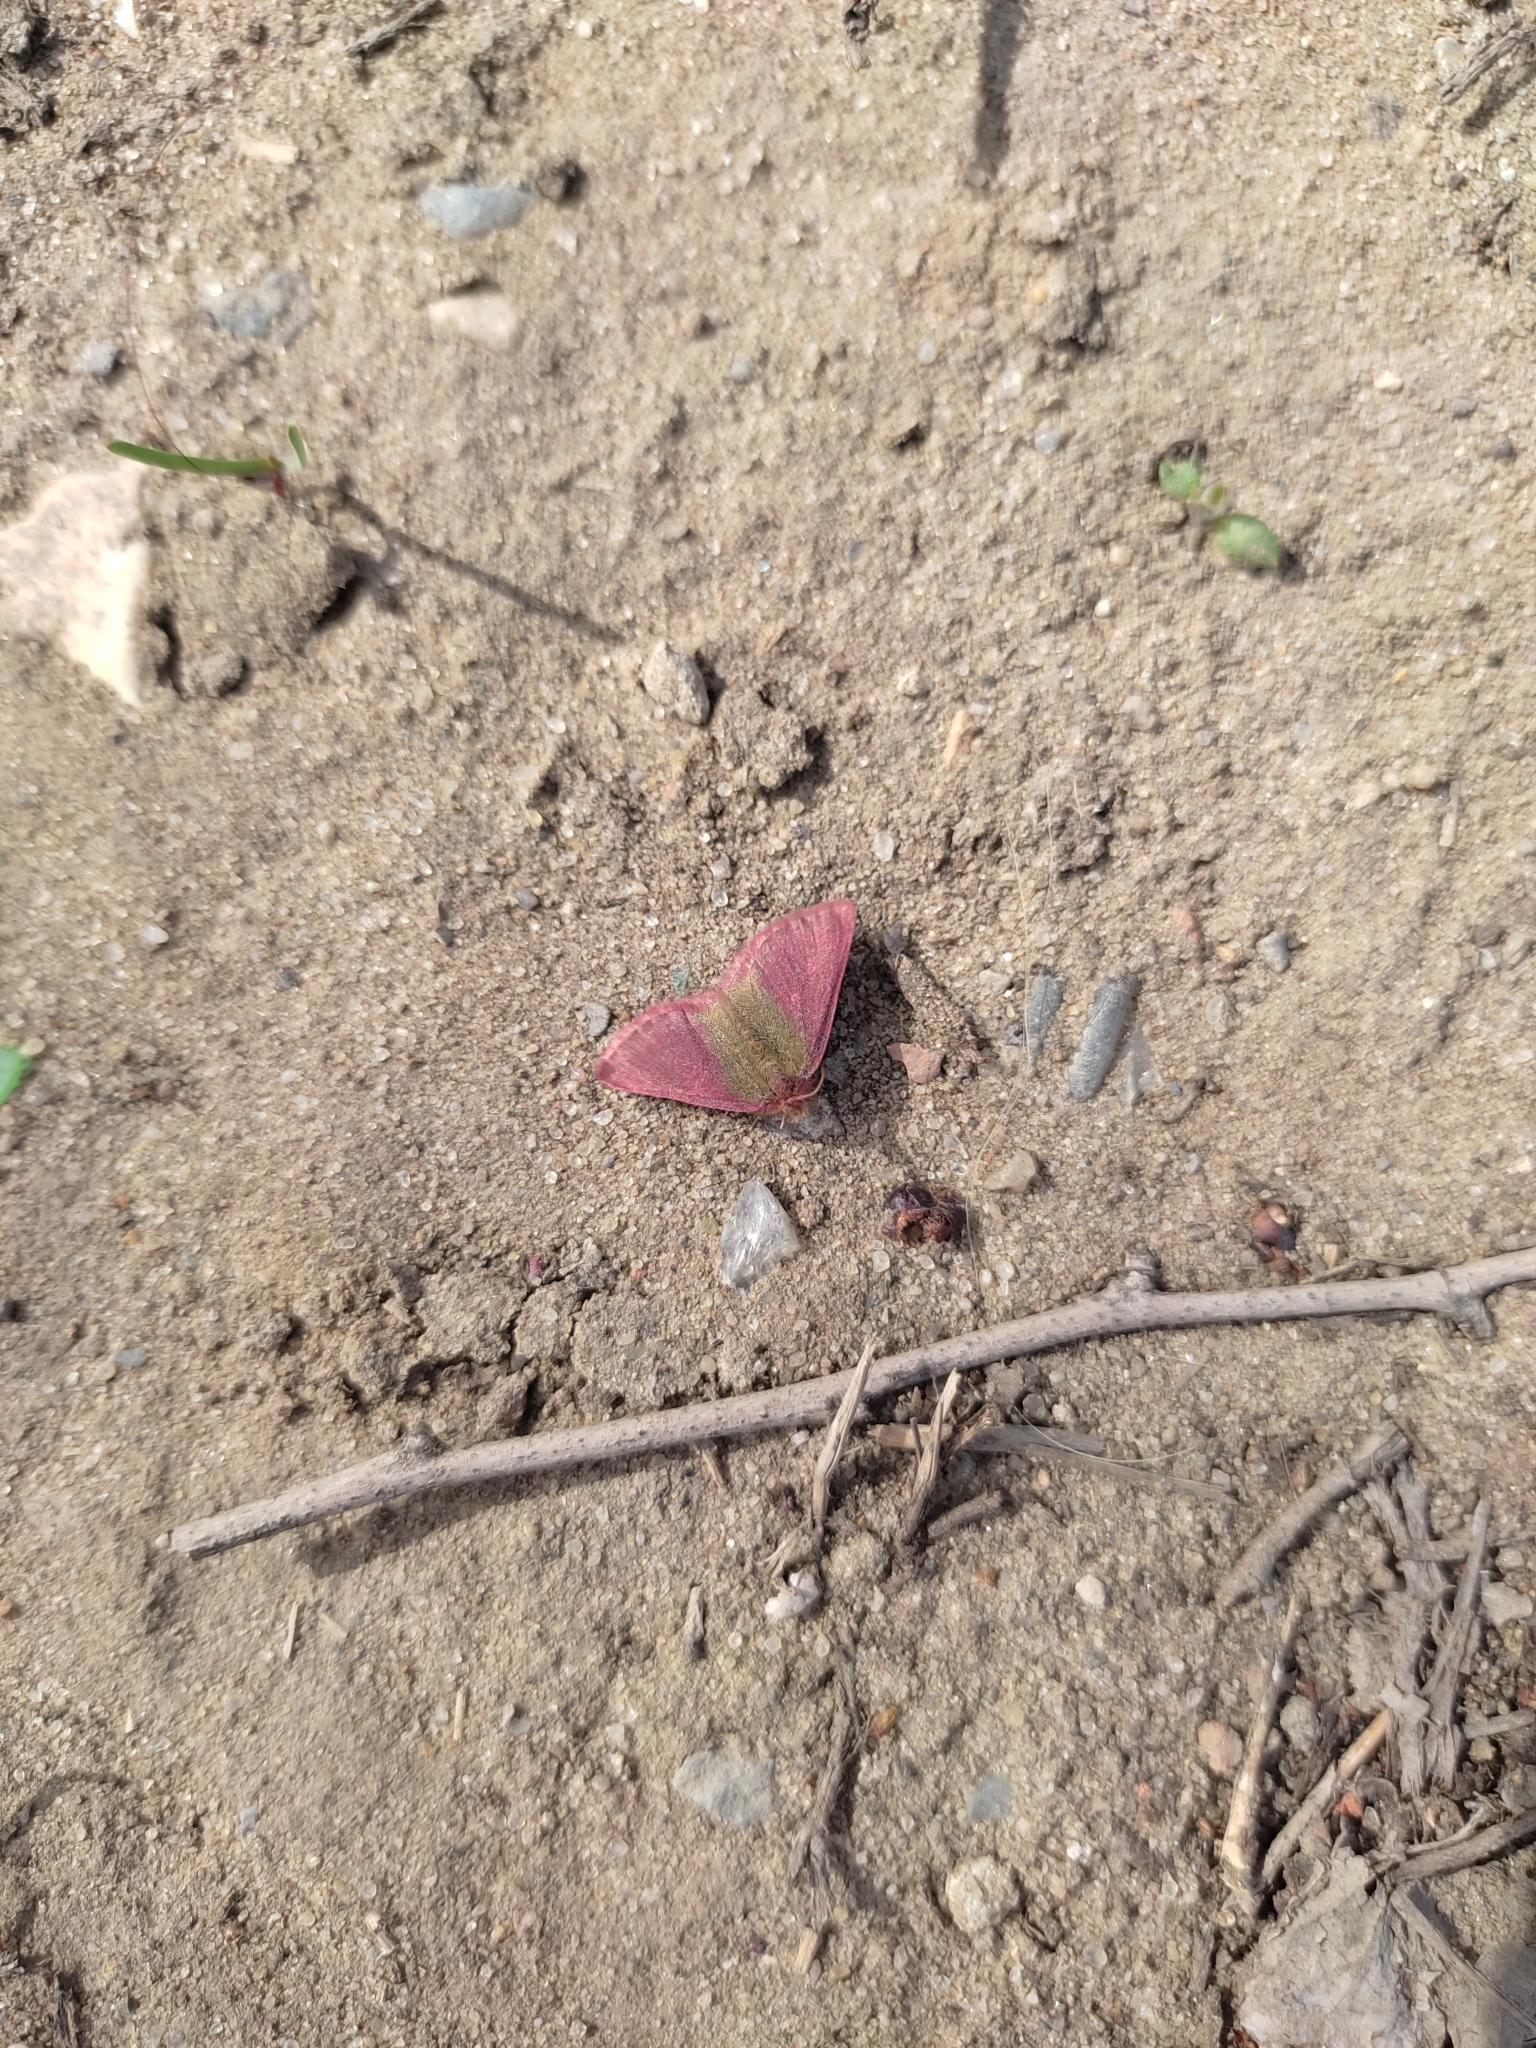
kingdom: Animalia
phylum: Arthropoda
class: Insecta
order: Lepidoptera
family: Geometridae
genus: Lythria
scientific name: Lythria purpuraria
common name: Purple-barred yellow
